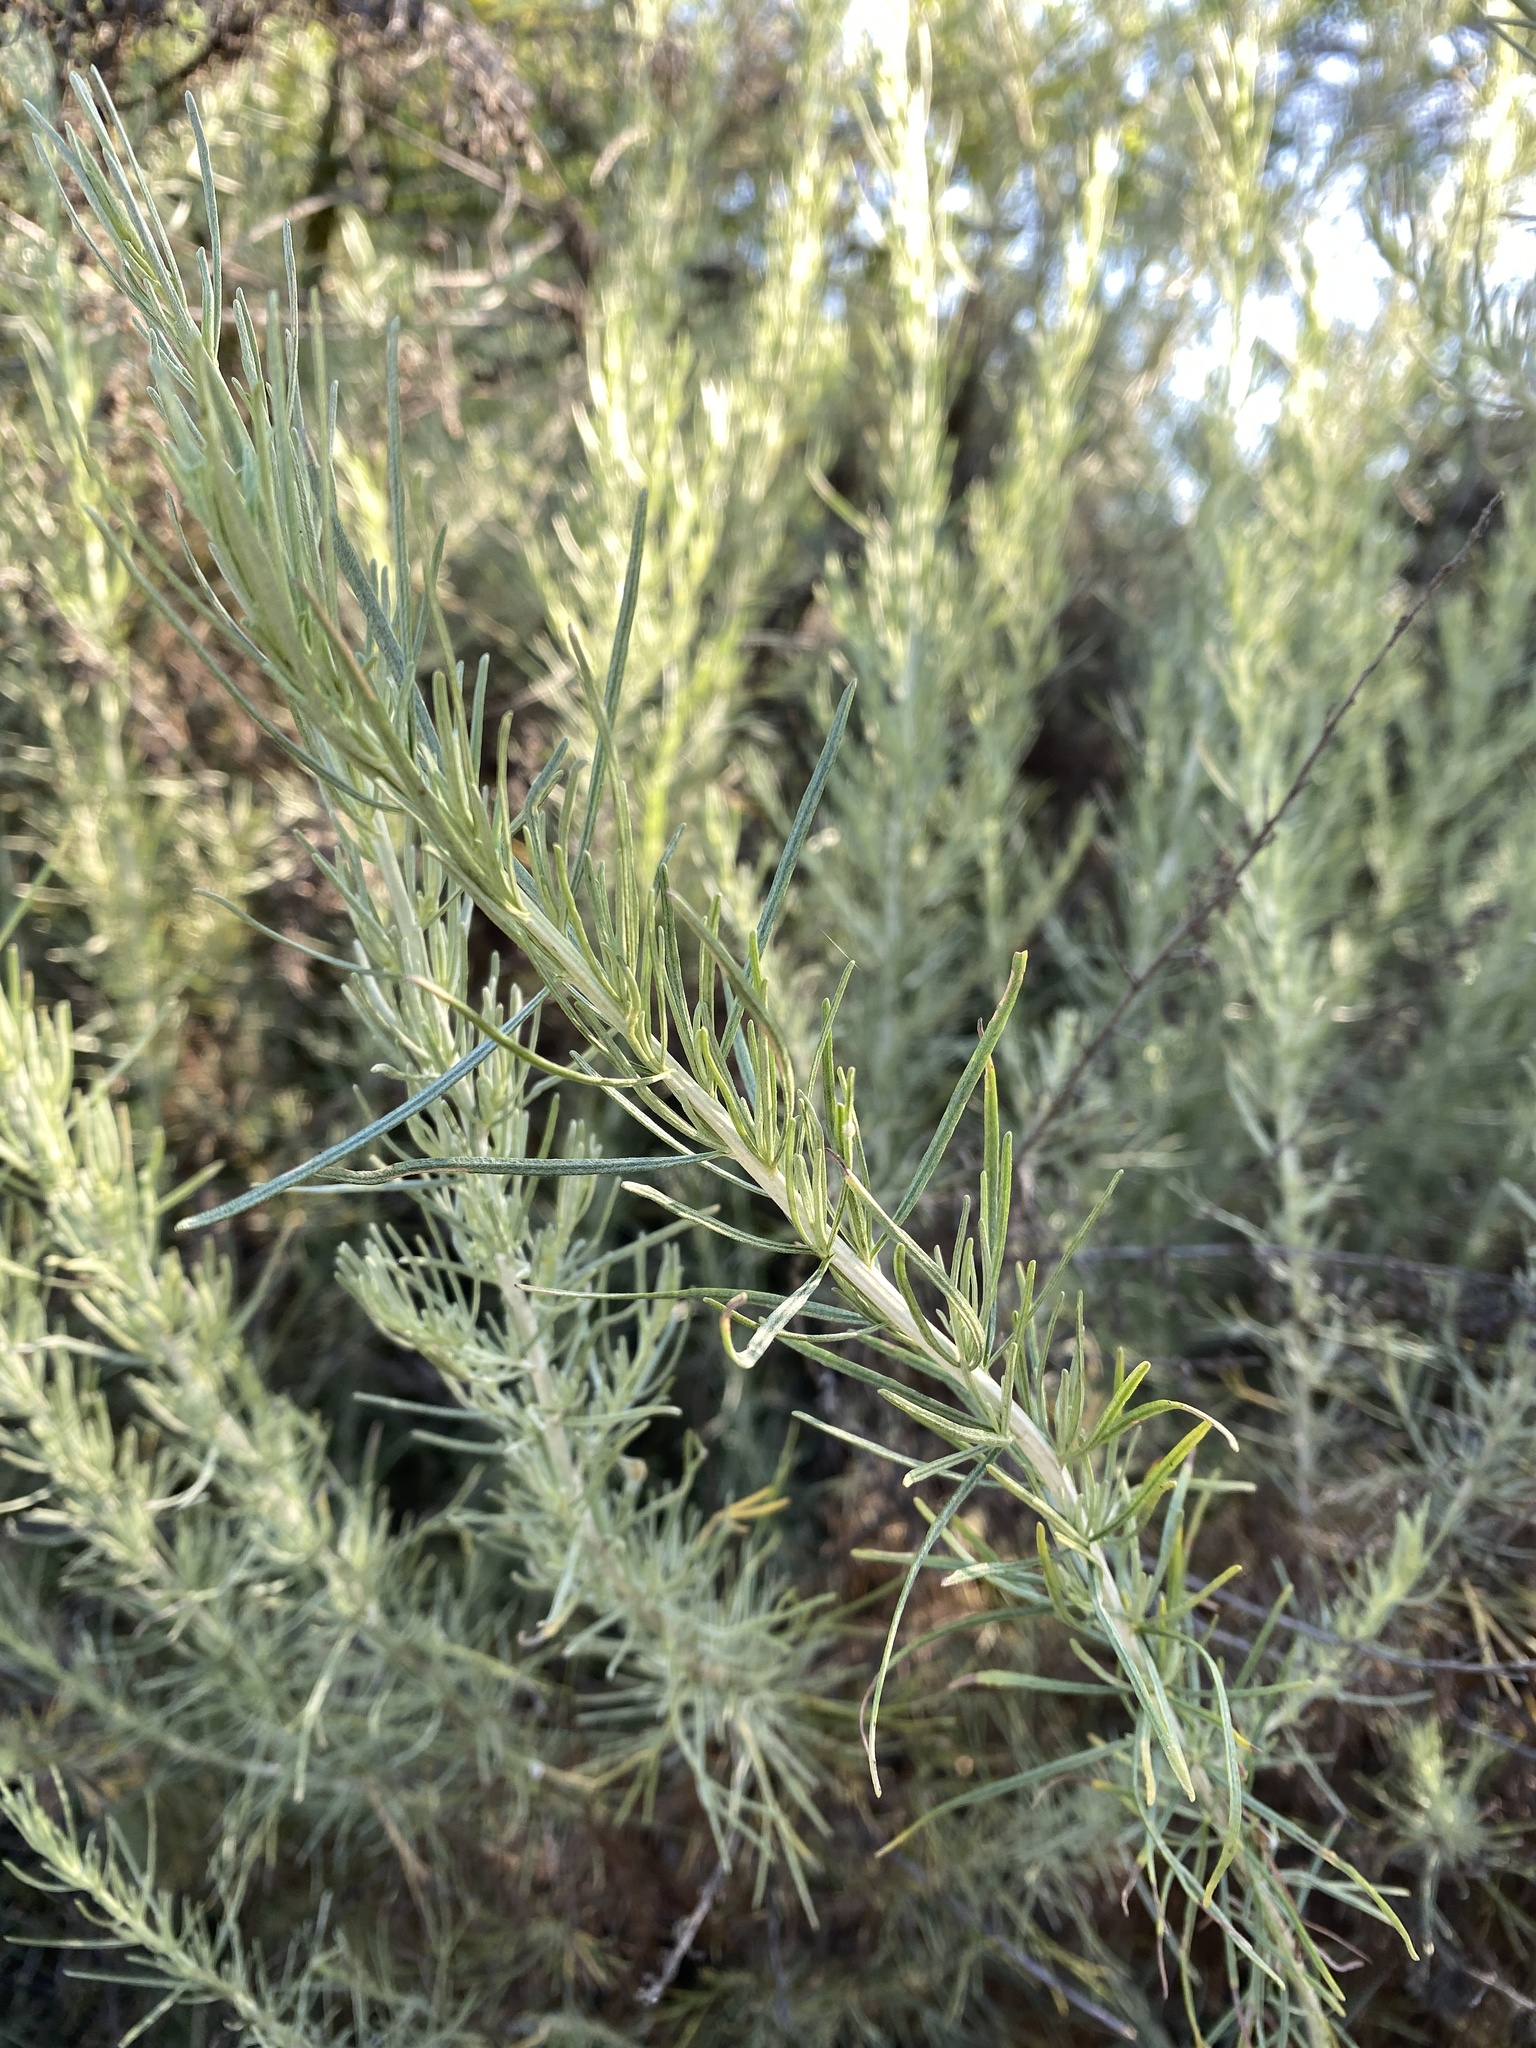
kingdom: Plantae
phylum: Tracheophyta
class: Magnoliopsida
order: Asterales
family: Asteraceae
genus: Artemisia
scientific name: Artemisia californica
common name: California sagebrush
